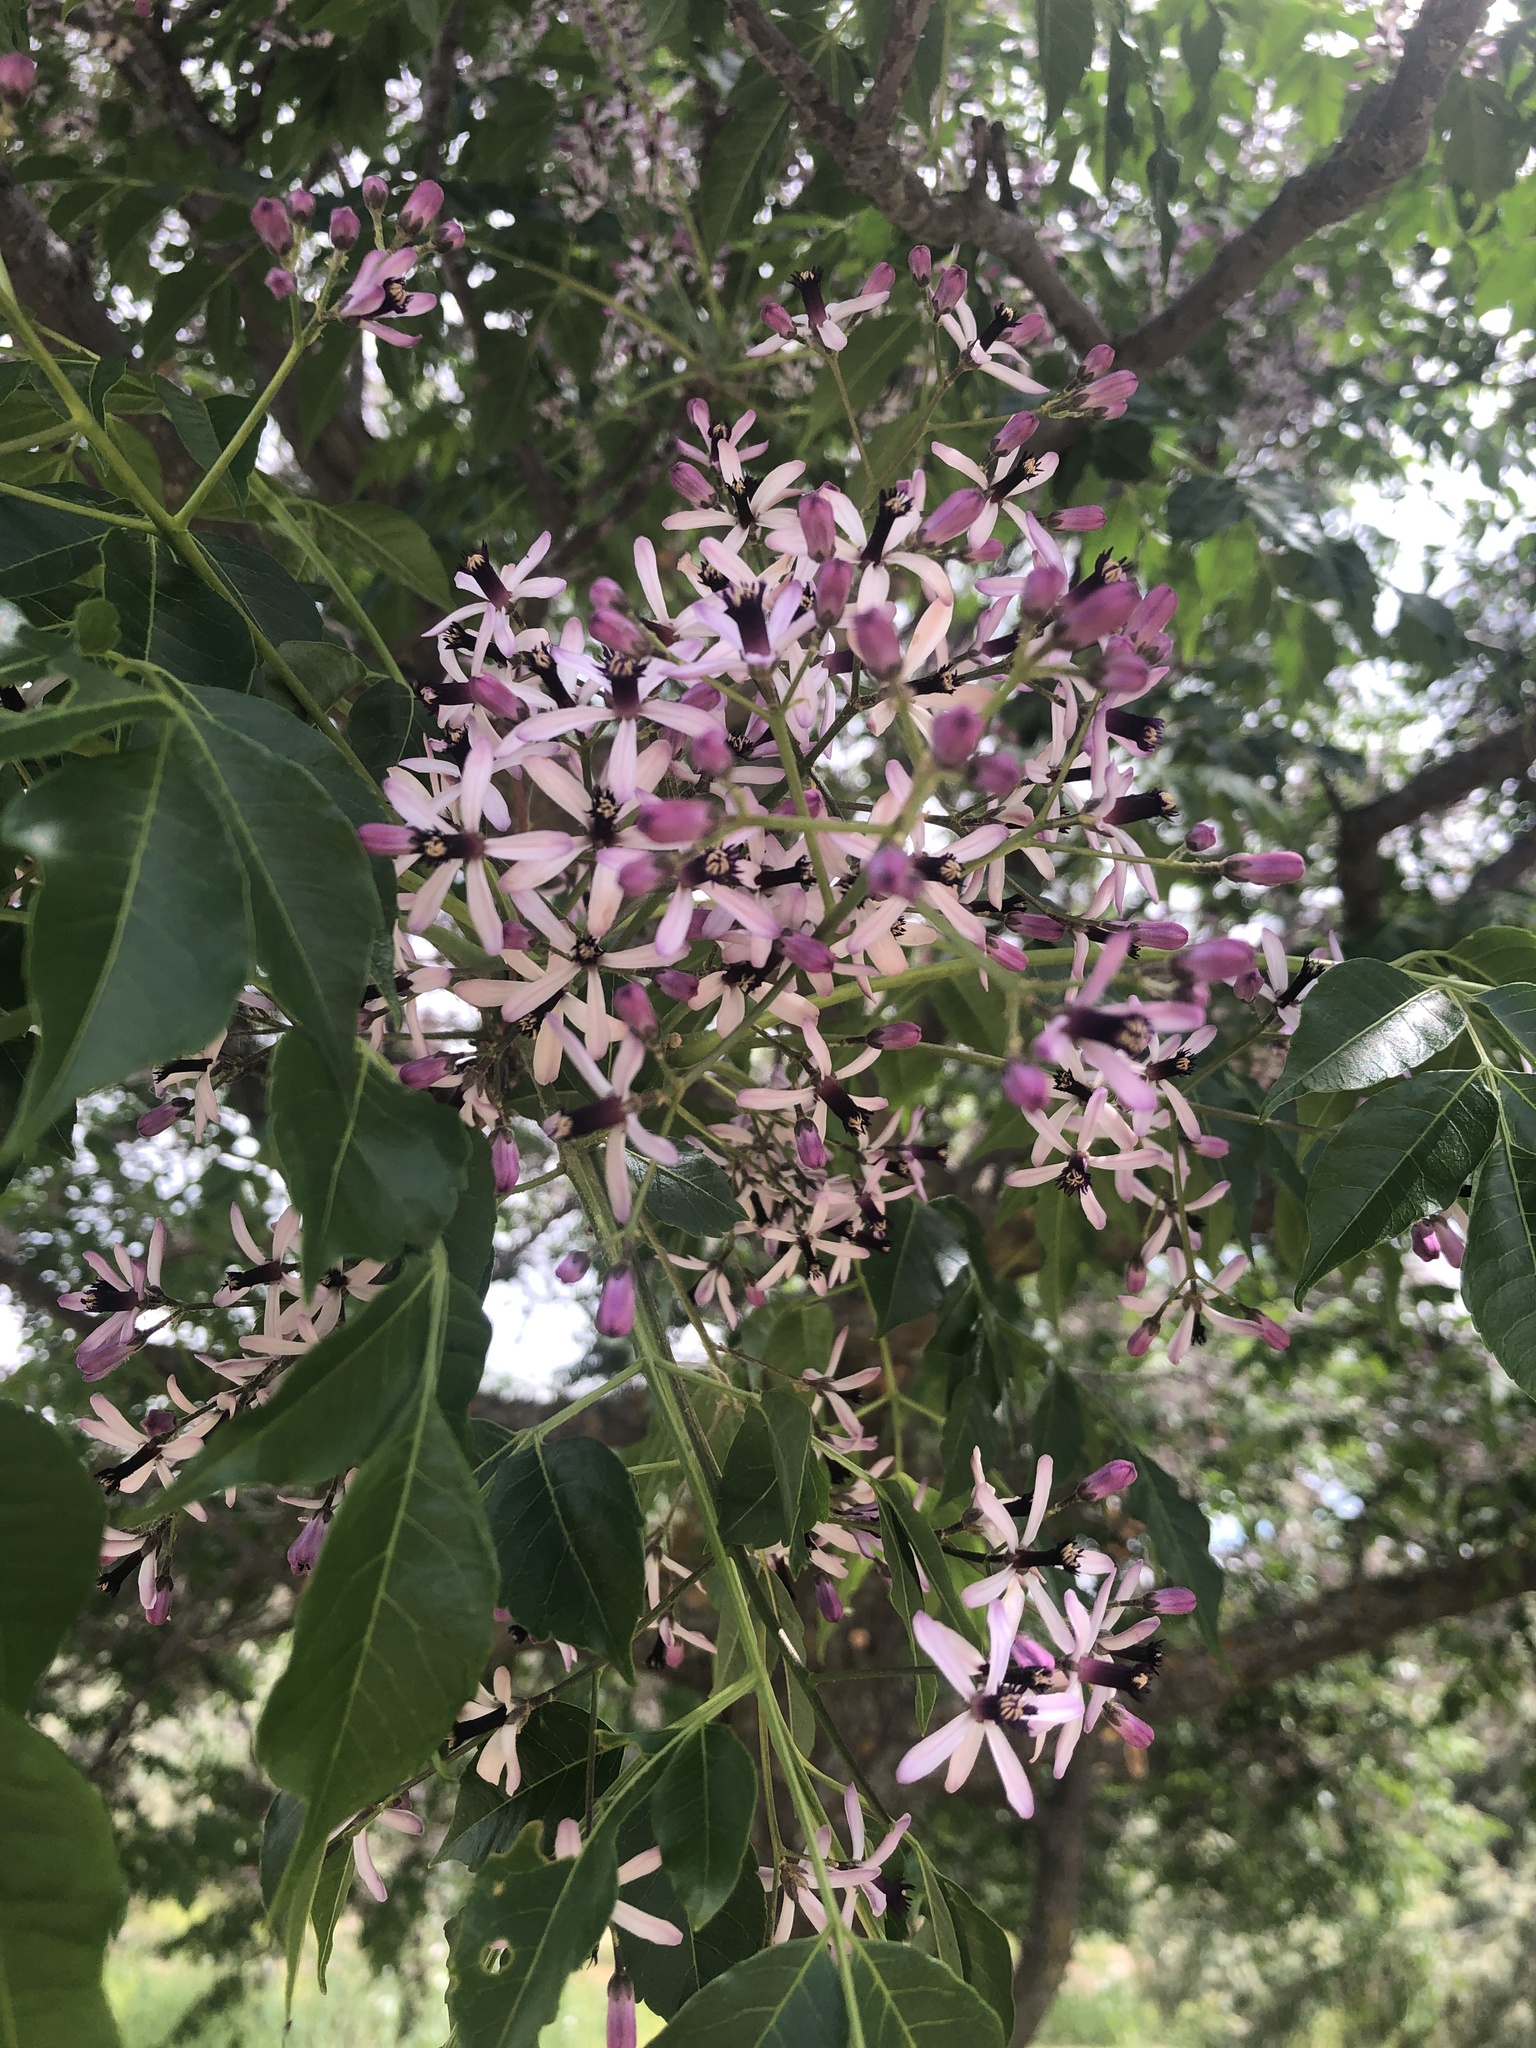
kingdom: Plantae
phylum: Tracheophyta
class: Magnoliopsida
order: Sapindales
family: Meliaceae
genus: Melia
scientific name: Melia azedarach
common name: Chinaberrytree
